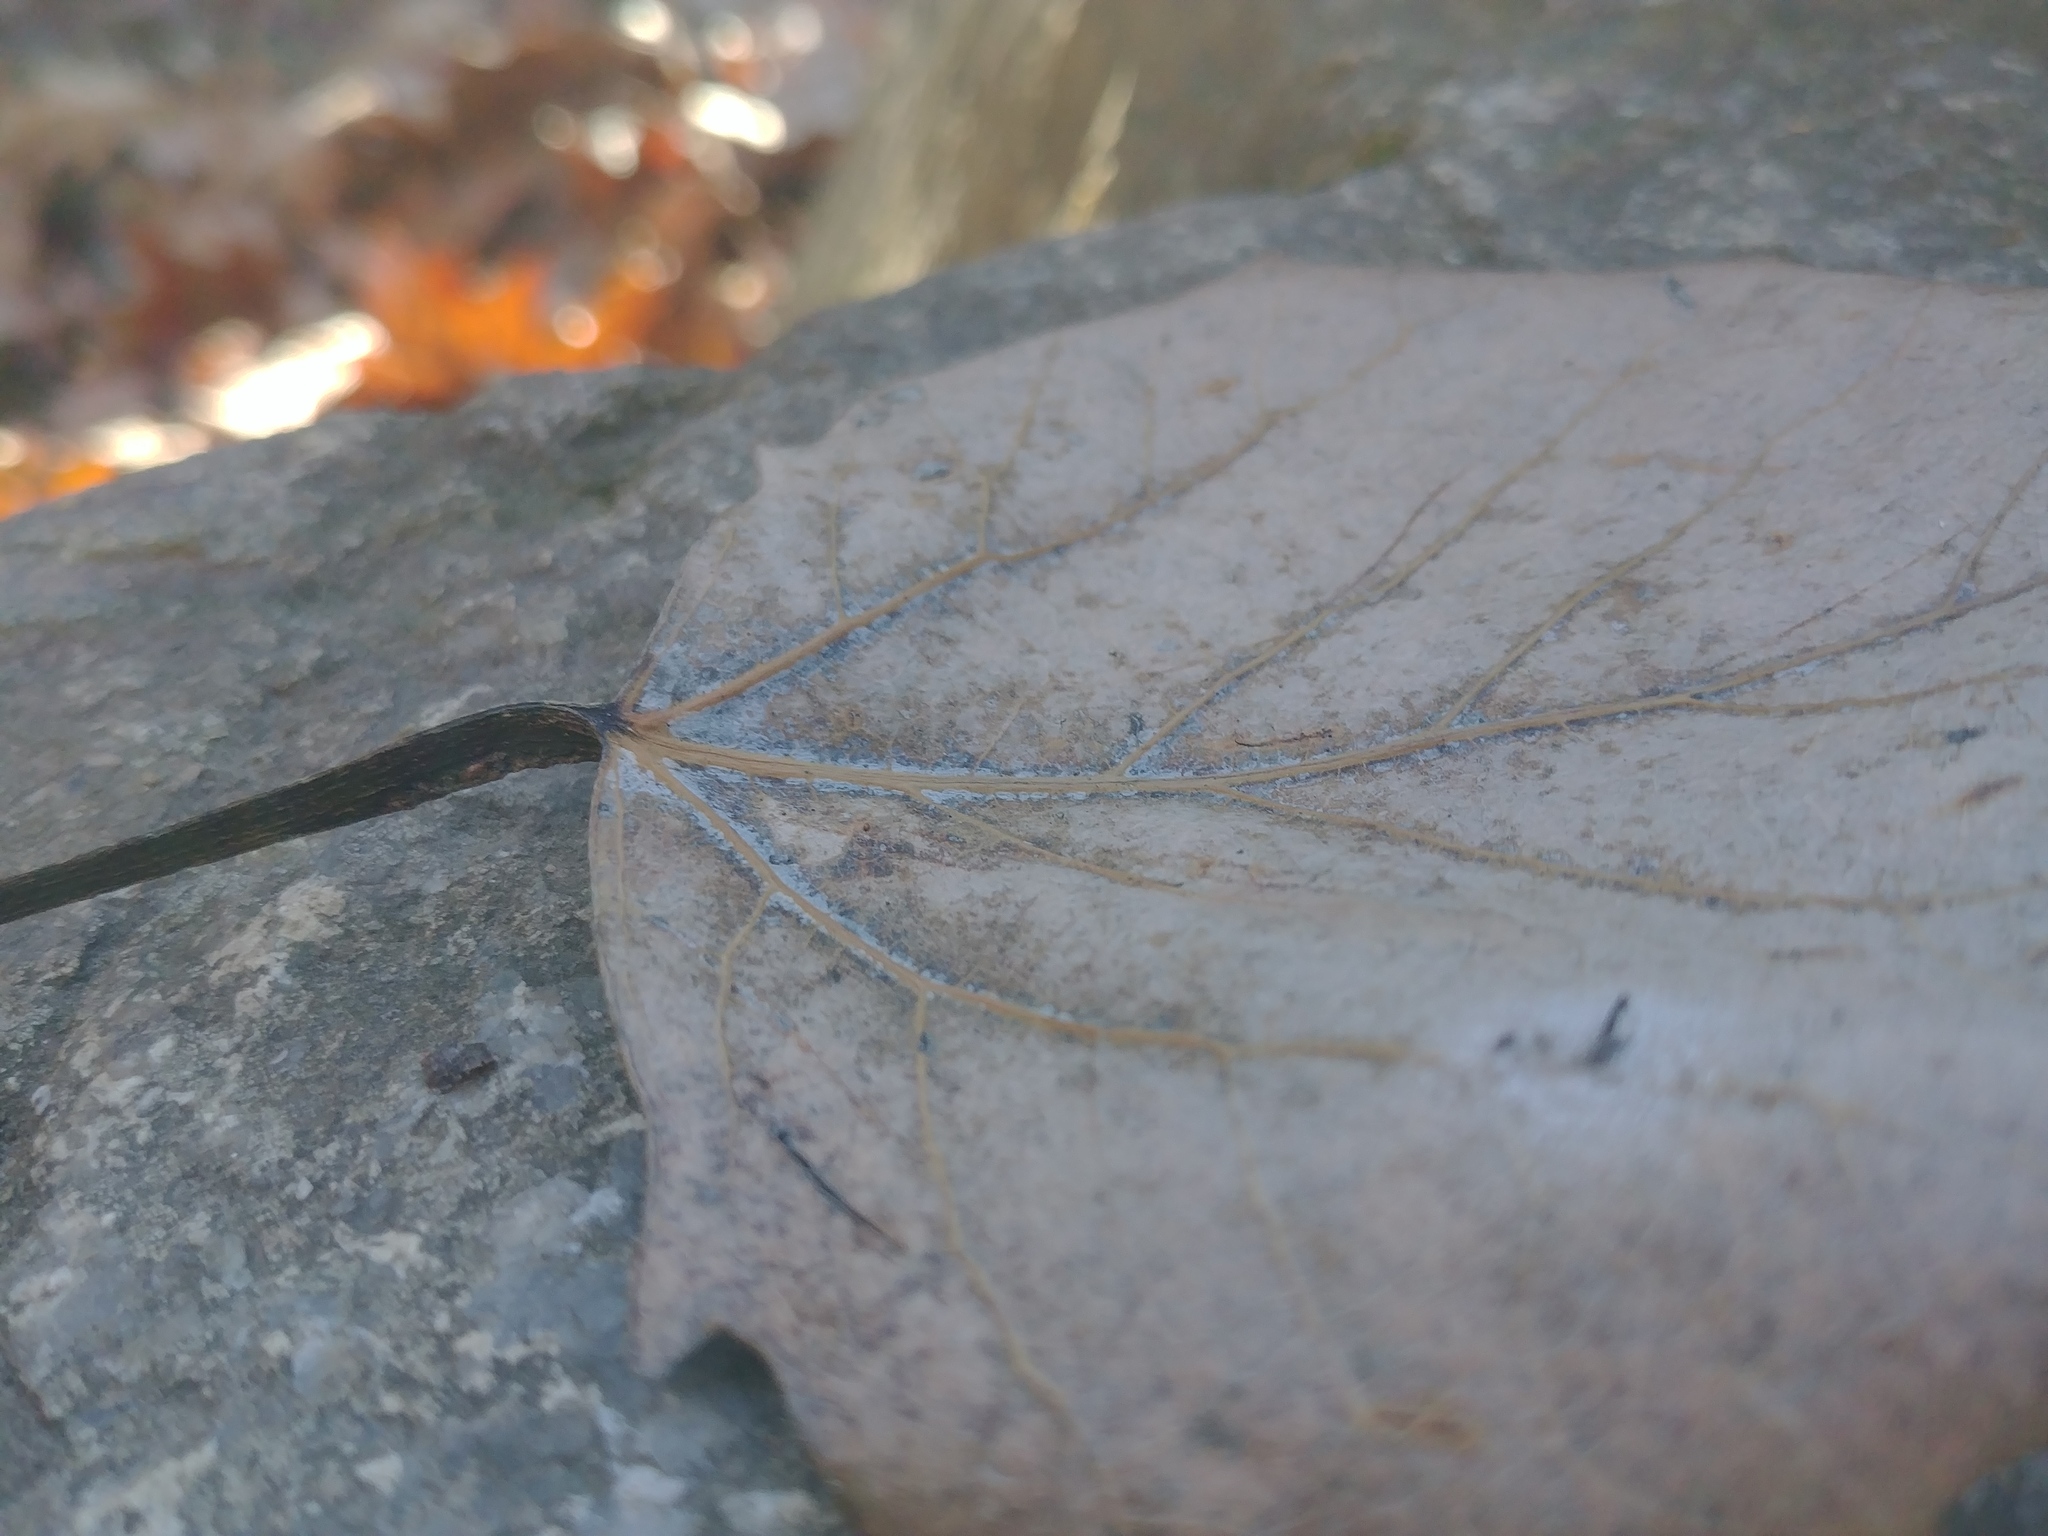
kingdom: Plantae
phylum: Tracheophyta
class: Magnoliopsida
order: Malpighiales
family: Salicaceae
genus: Populus
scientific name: Populus grandidentata
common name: Bigtooth aspen
